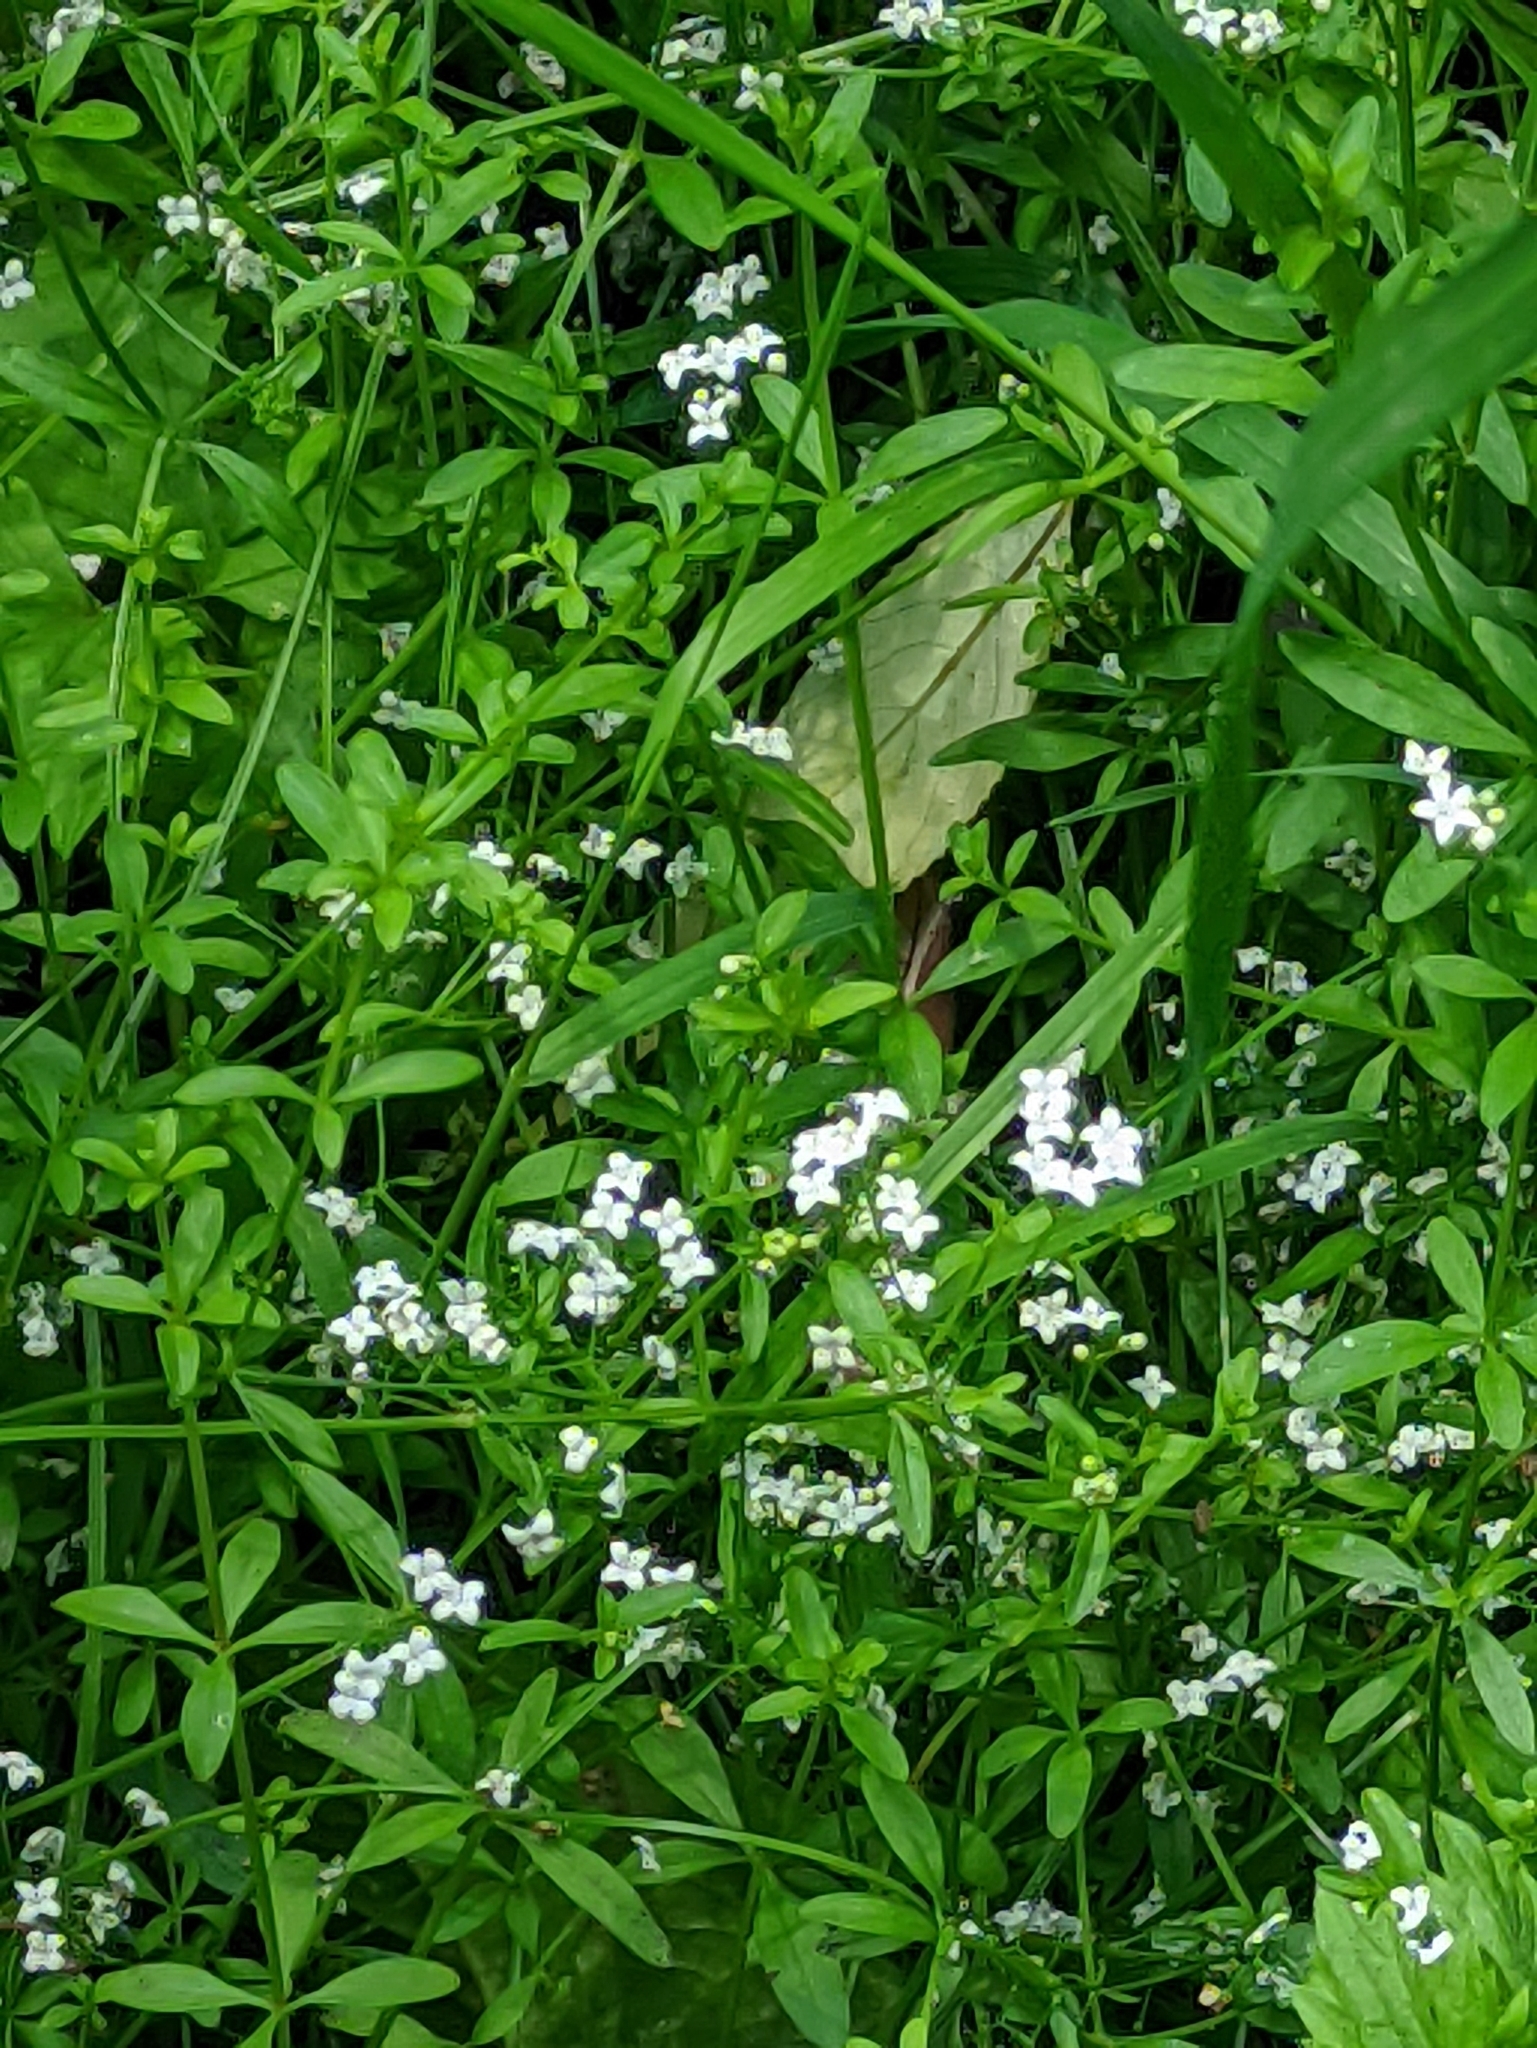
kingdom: Plantae
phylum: Tracheophyta
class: Magnoliopsida
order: Gentianales
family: Rubiaceae
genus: Galium
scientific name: Galium palustre
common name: Common marsh-bedstraw
